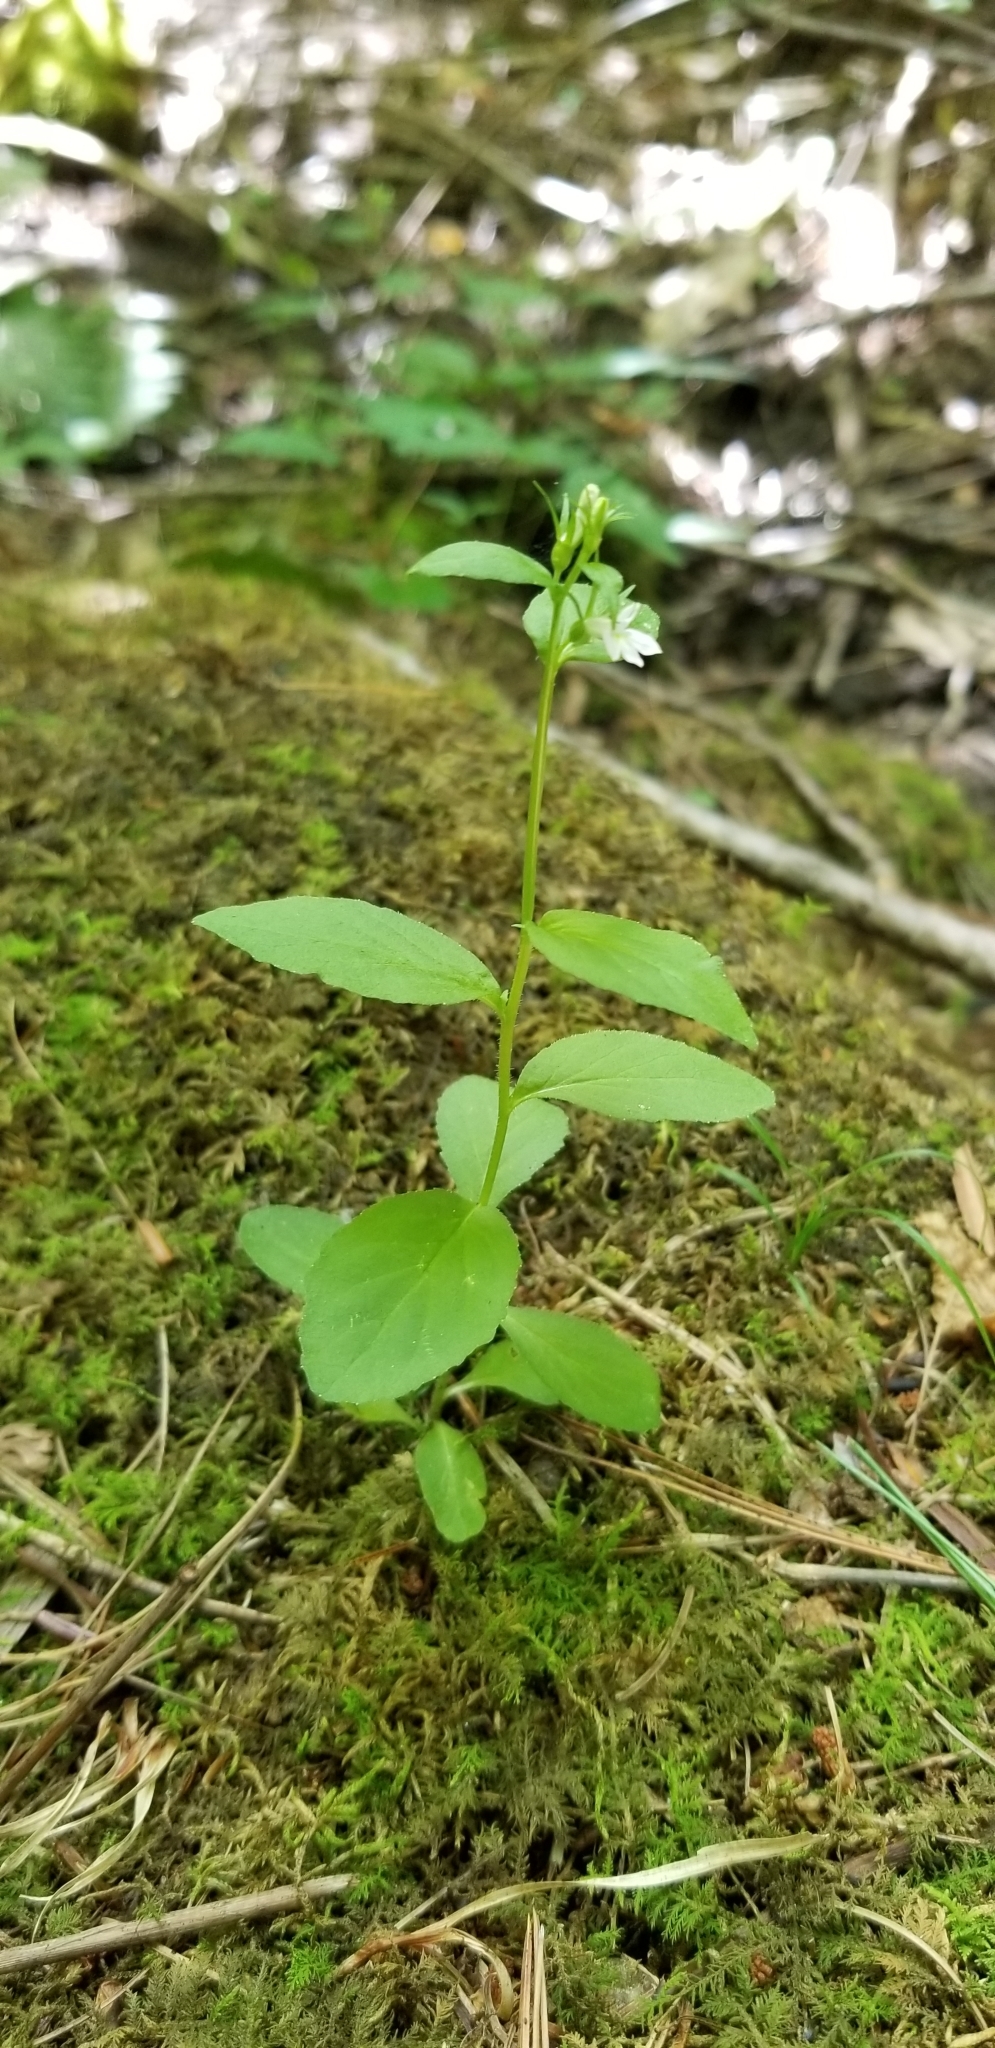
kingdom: Plantae
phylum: Tracheophyta
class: Magnoliopsida
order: Asterales
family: Campanulaceae
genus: Lobelia
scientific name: Lobelia inflata
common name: Indian tobacco
